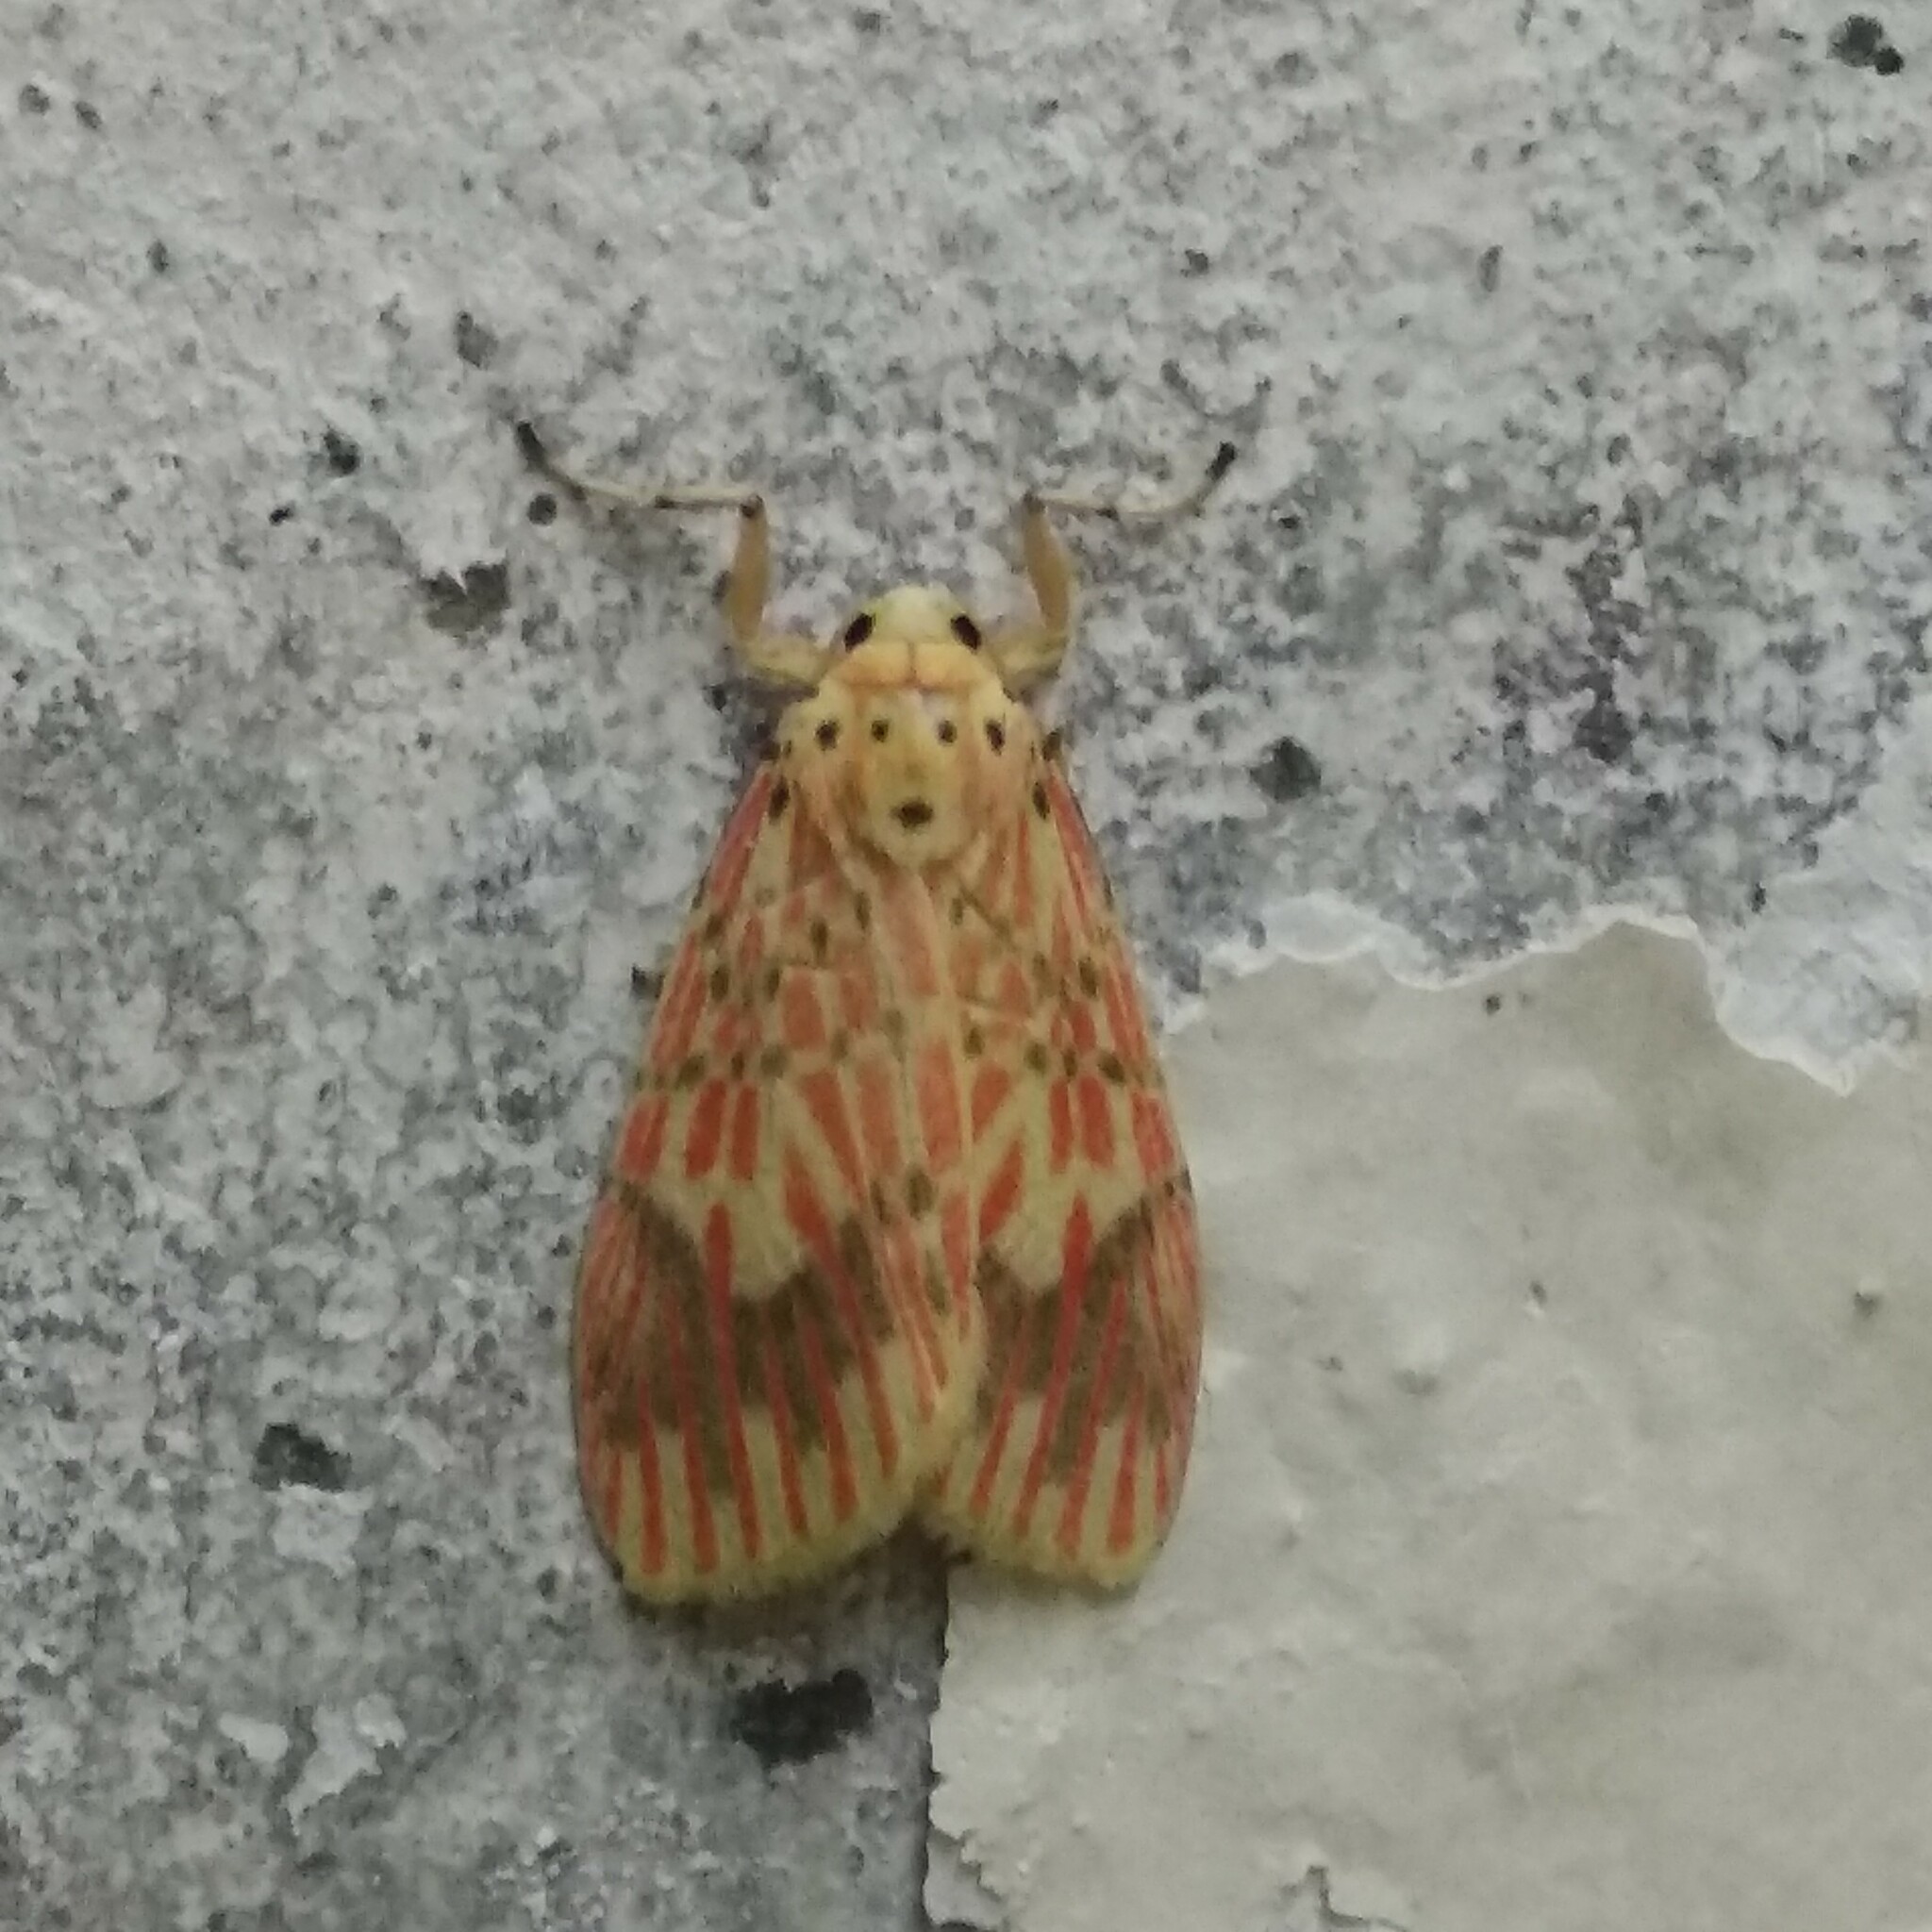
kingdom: Animalia
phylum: Arthropoda
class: Insecta
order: Lepidoptera
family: Erebidae
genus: Barsine
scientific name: Barsine defecta
